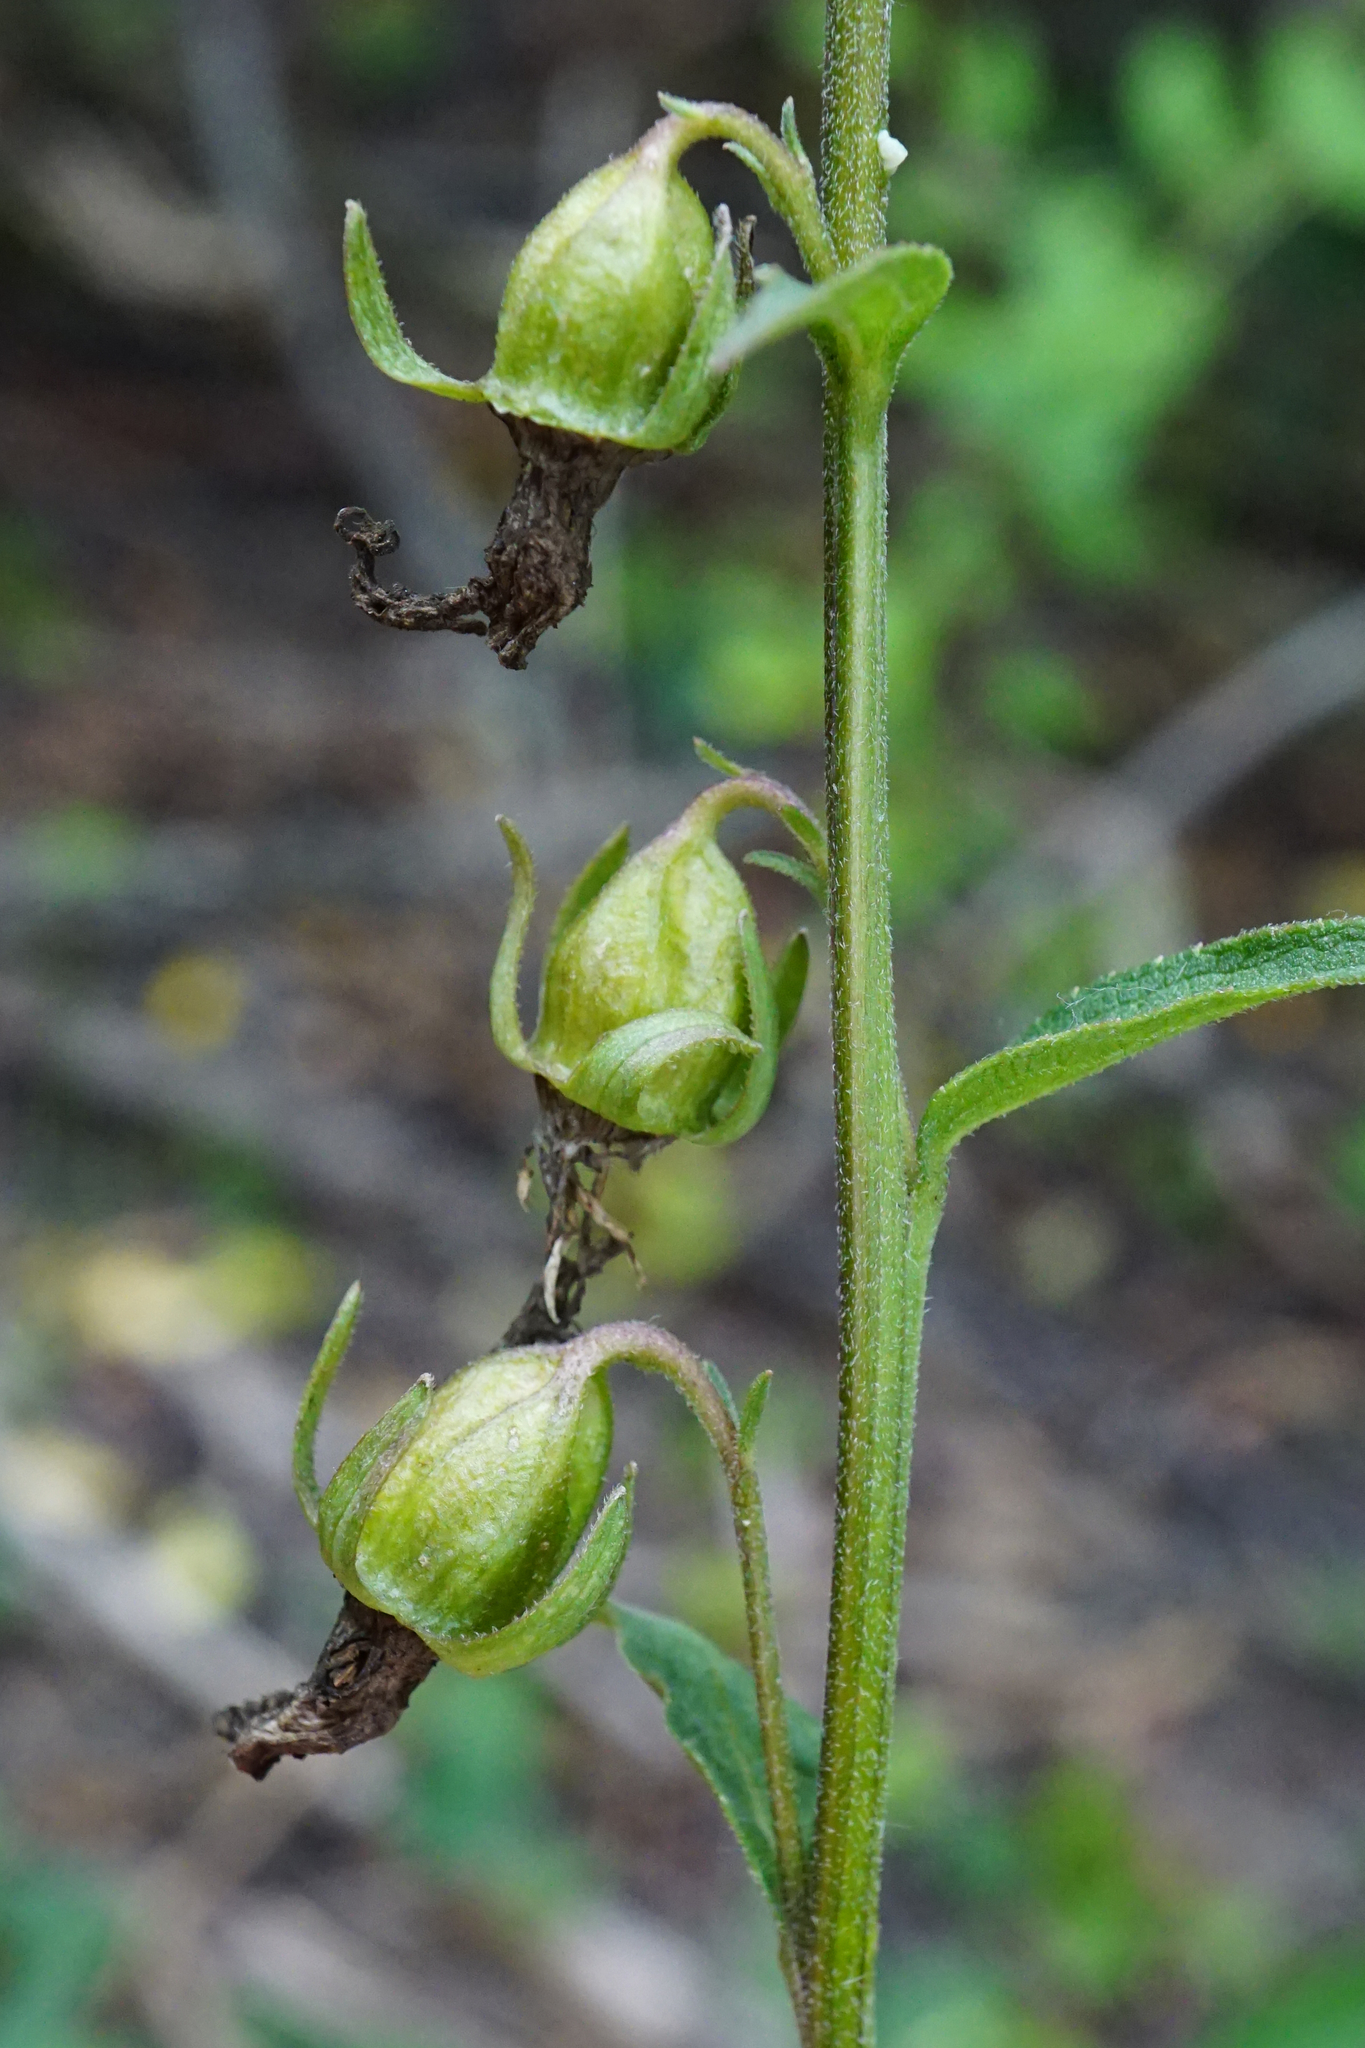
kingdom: Plantae
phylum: Tracheophyta
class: Magnoliopsida
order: Asterales
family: Campanulaceae
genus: Campanula
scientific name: Campanula rapunculoides
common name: Creeping bellflower
